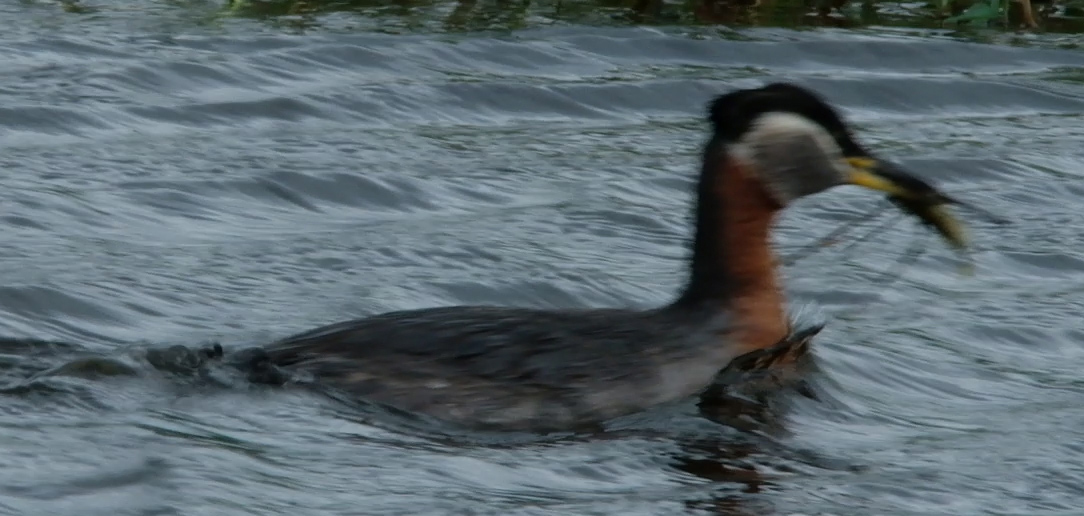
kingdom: Animalia
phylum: Chordata
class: Aves
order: Podicipediformes
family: Podicipedidae
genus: Podiceps
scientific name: Podiceps grisegena
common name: Red-necked grebe
